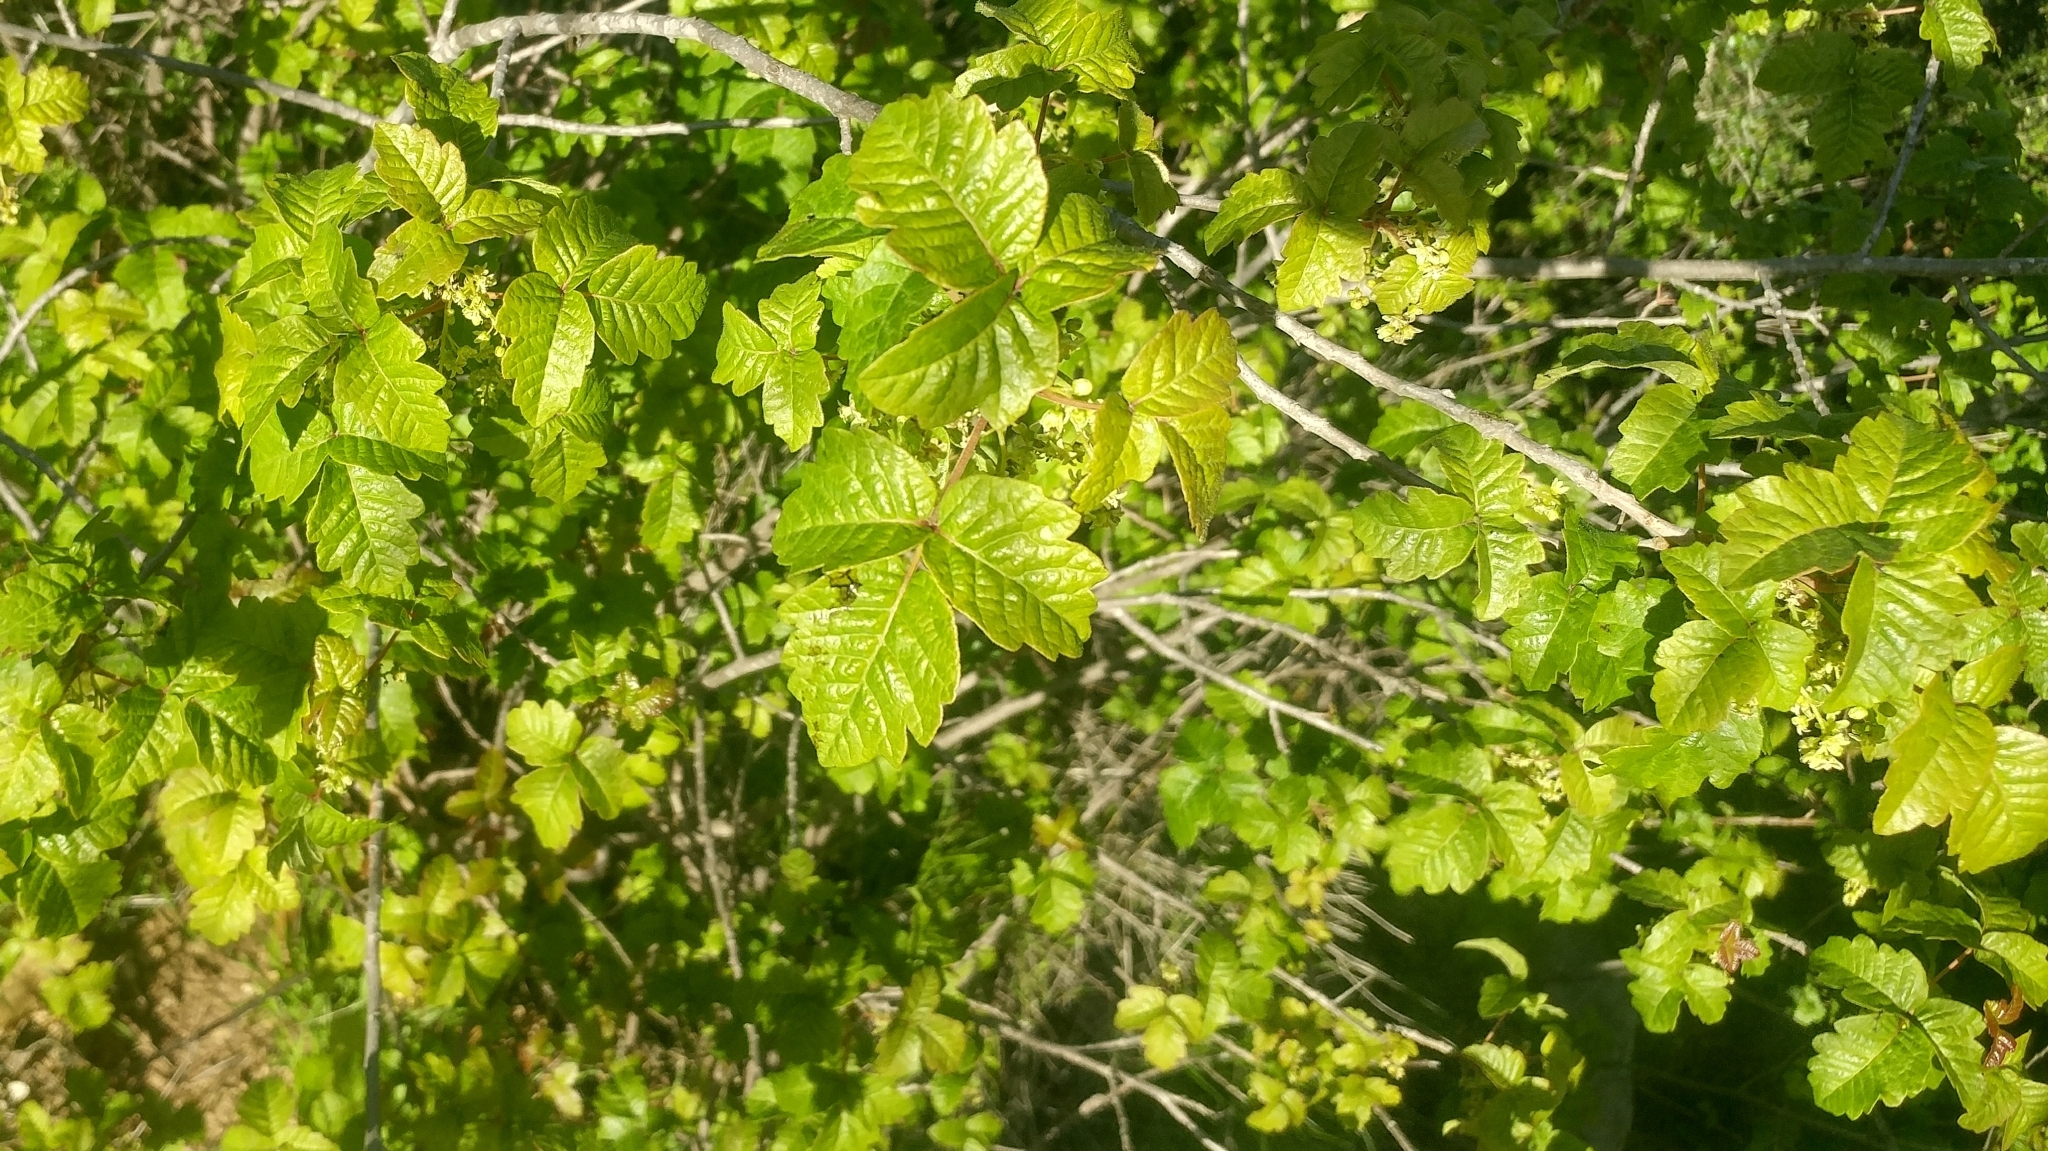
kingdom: Plantae
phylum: Tracheophyta
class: Magnoliopsida
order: Sapindales
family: Anacardiaceae
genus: Toxicodendron
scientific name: Toxicodendron diversilobum
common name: Pacific poison-oak
